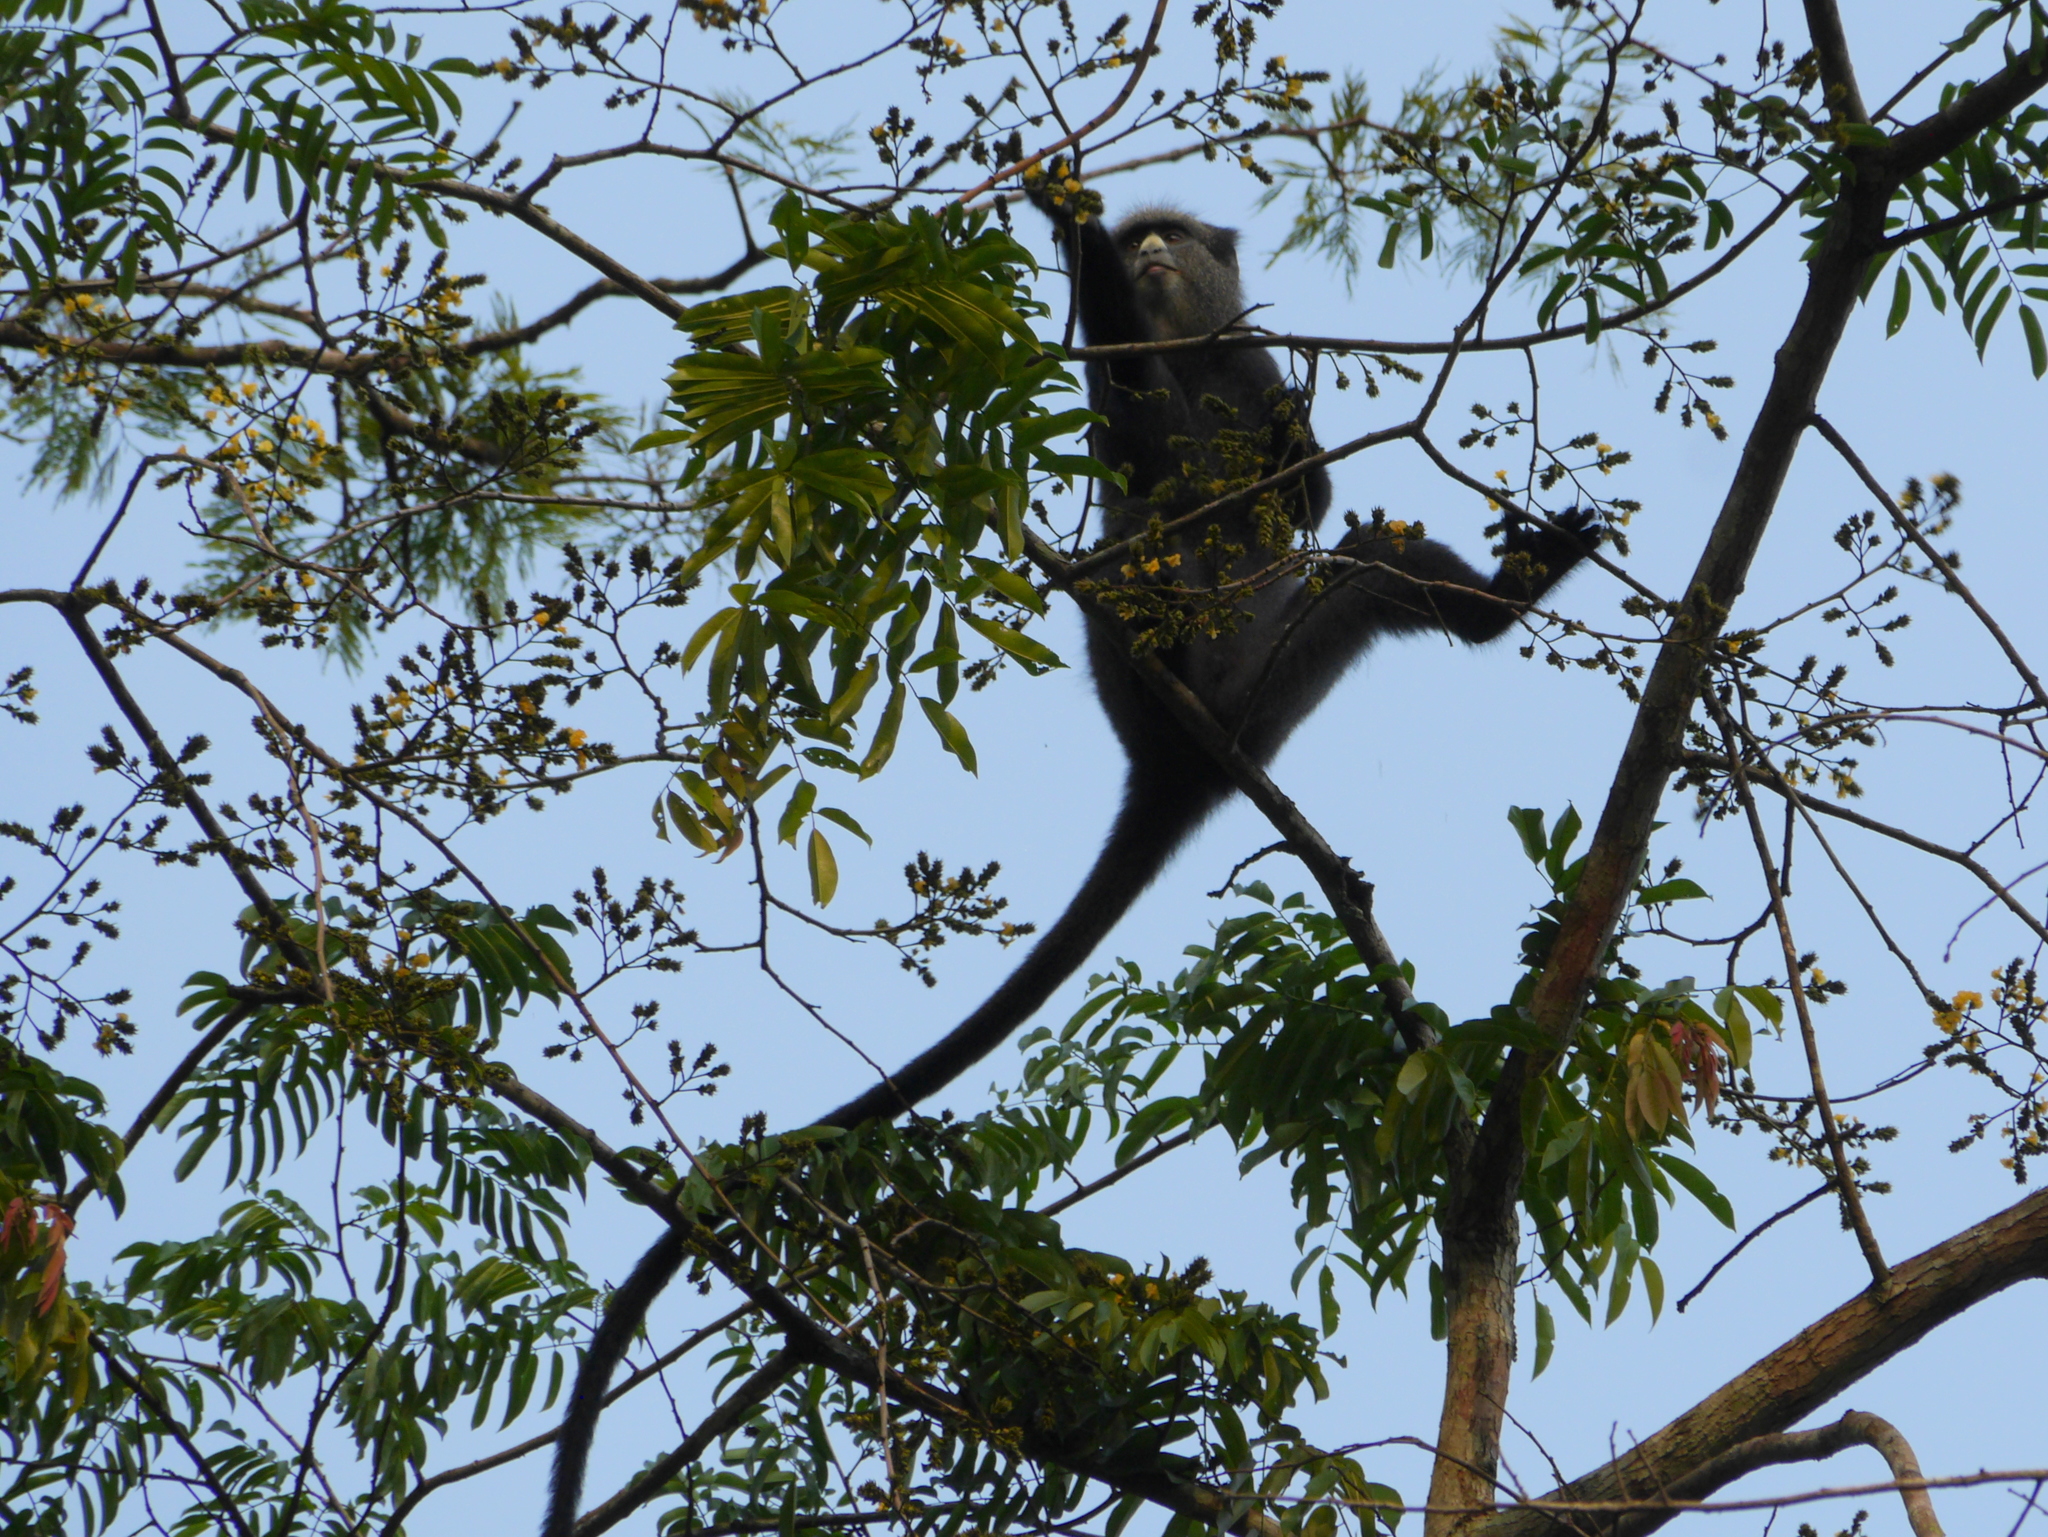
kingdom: Animalia
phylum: Chordata
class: Mammalia
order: Primates
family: Cercopithecidae
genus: Cercopithecus
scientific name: Cercopithecus nictitans
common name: Greater spot-nosed monkey
